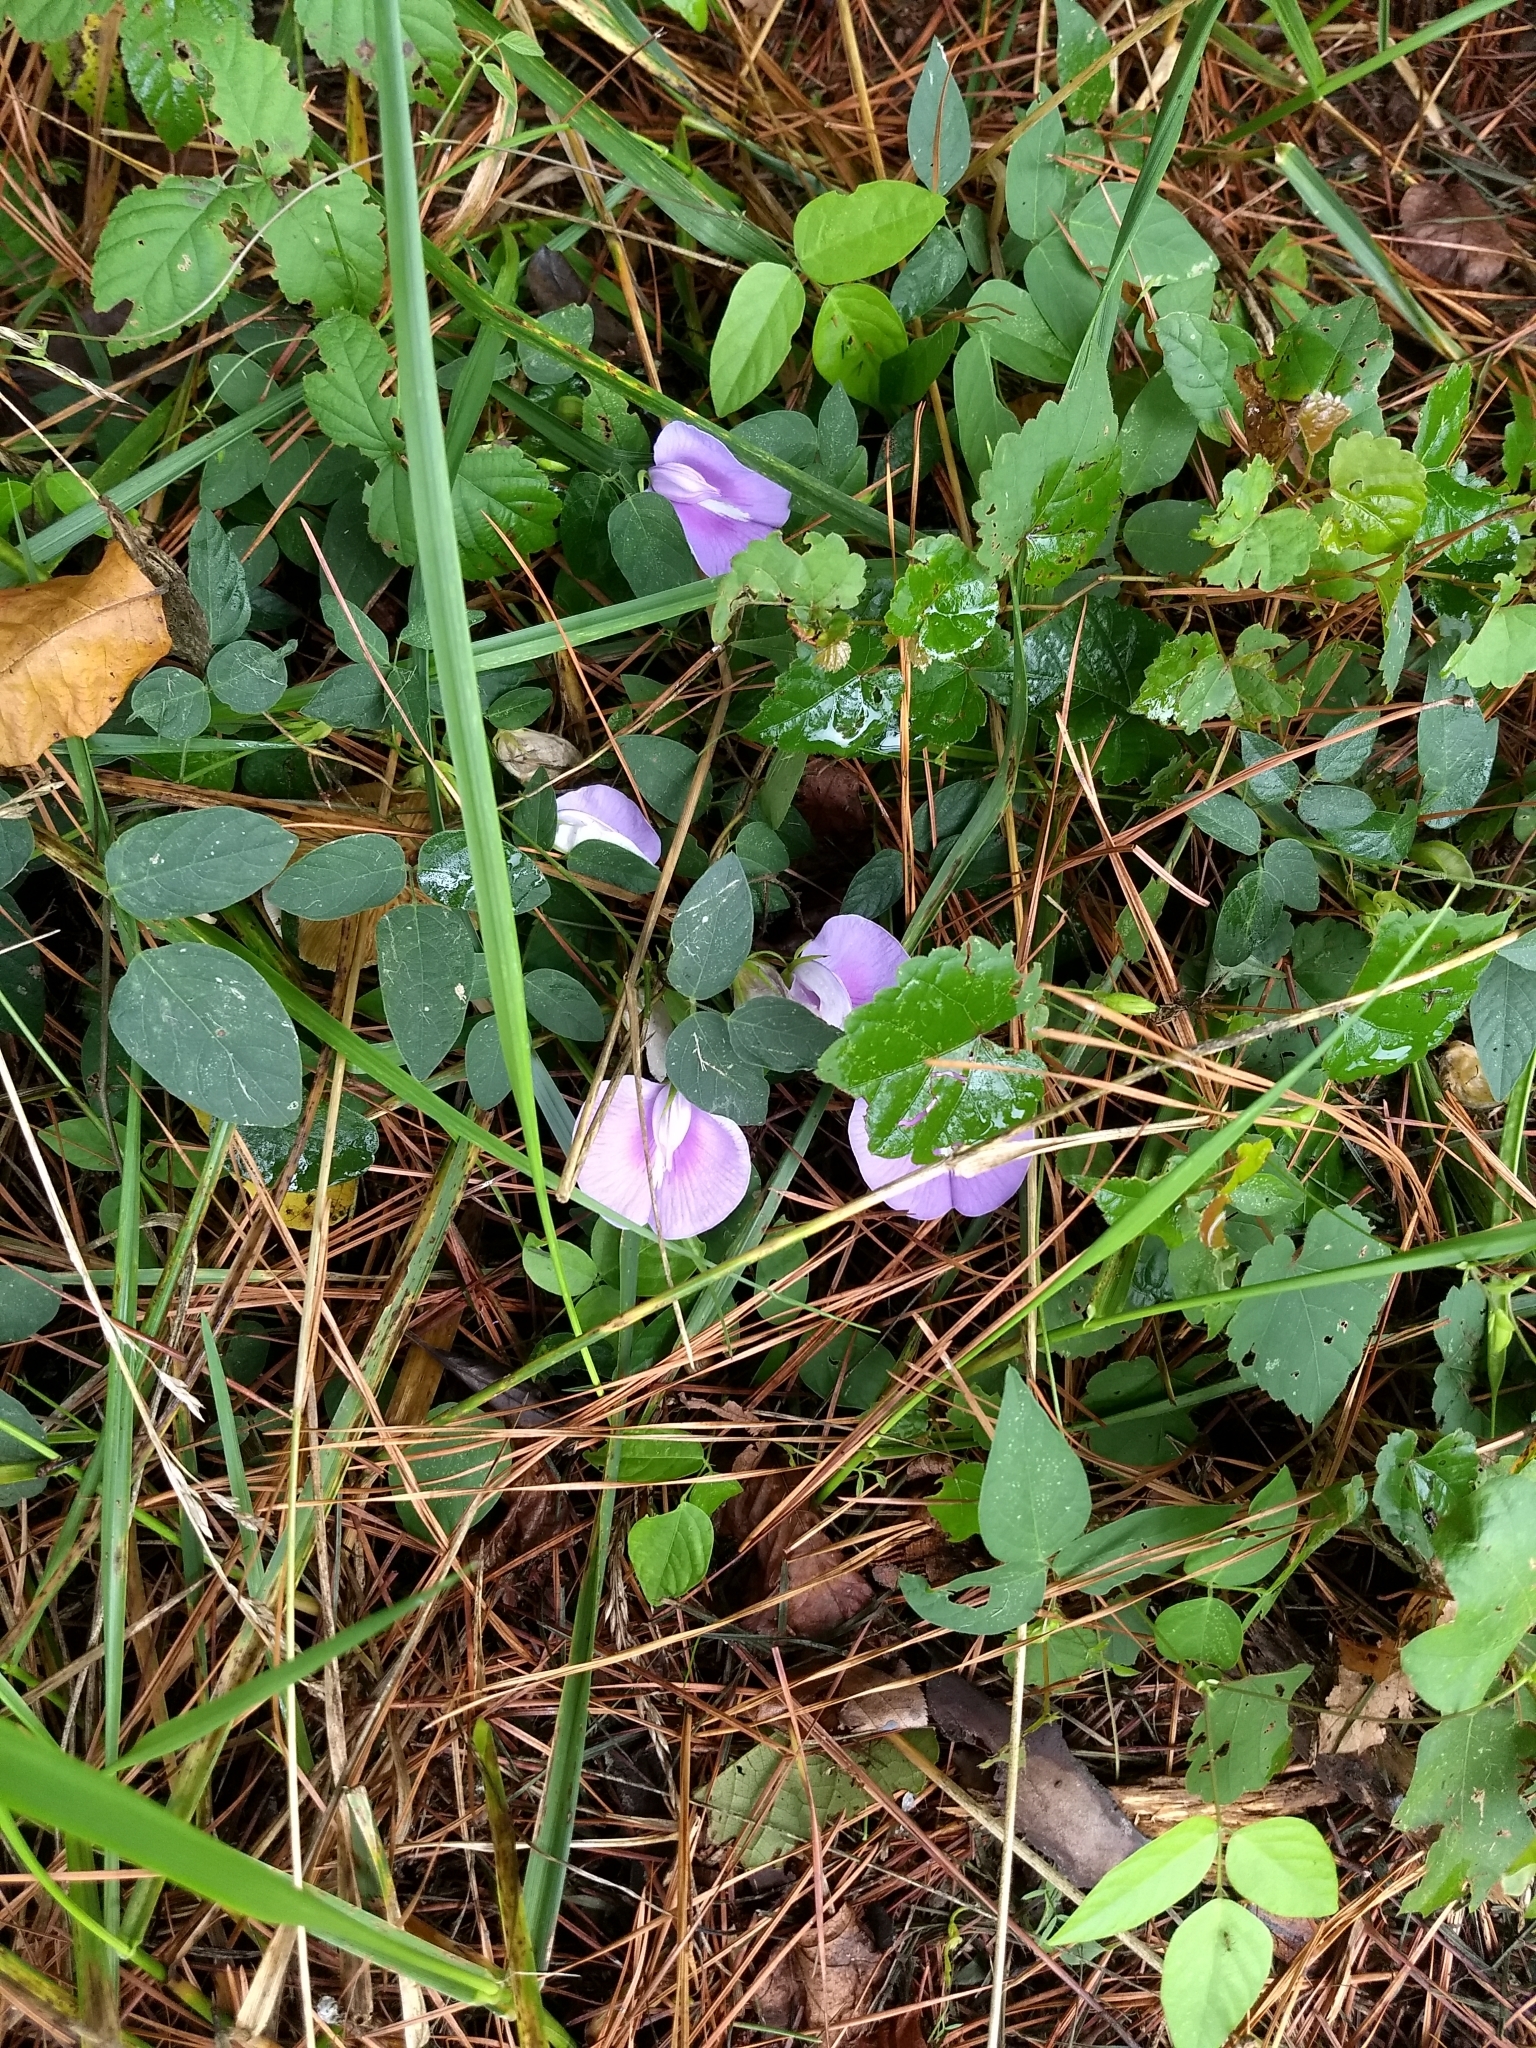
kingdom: Plantae
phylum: Tracheophyta
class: Magnoliopsida
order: Fabales
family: Fabaceae
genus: Centrosema
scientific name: Centrosema virginianum
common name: Butterfly-pea
